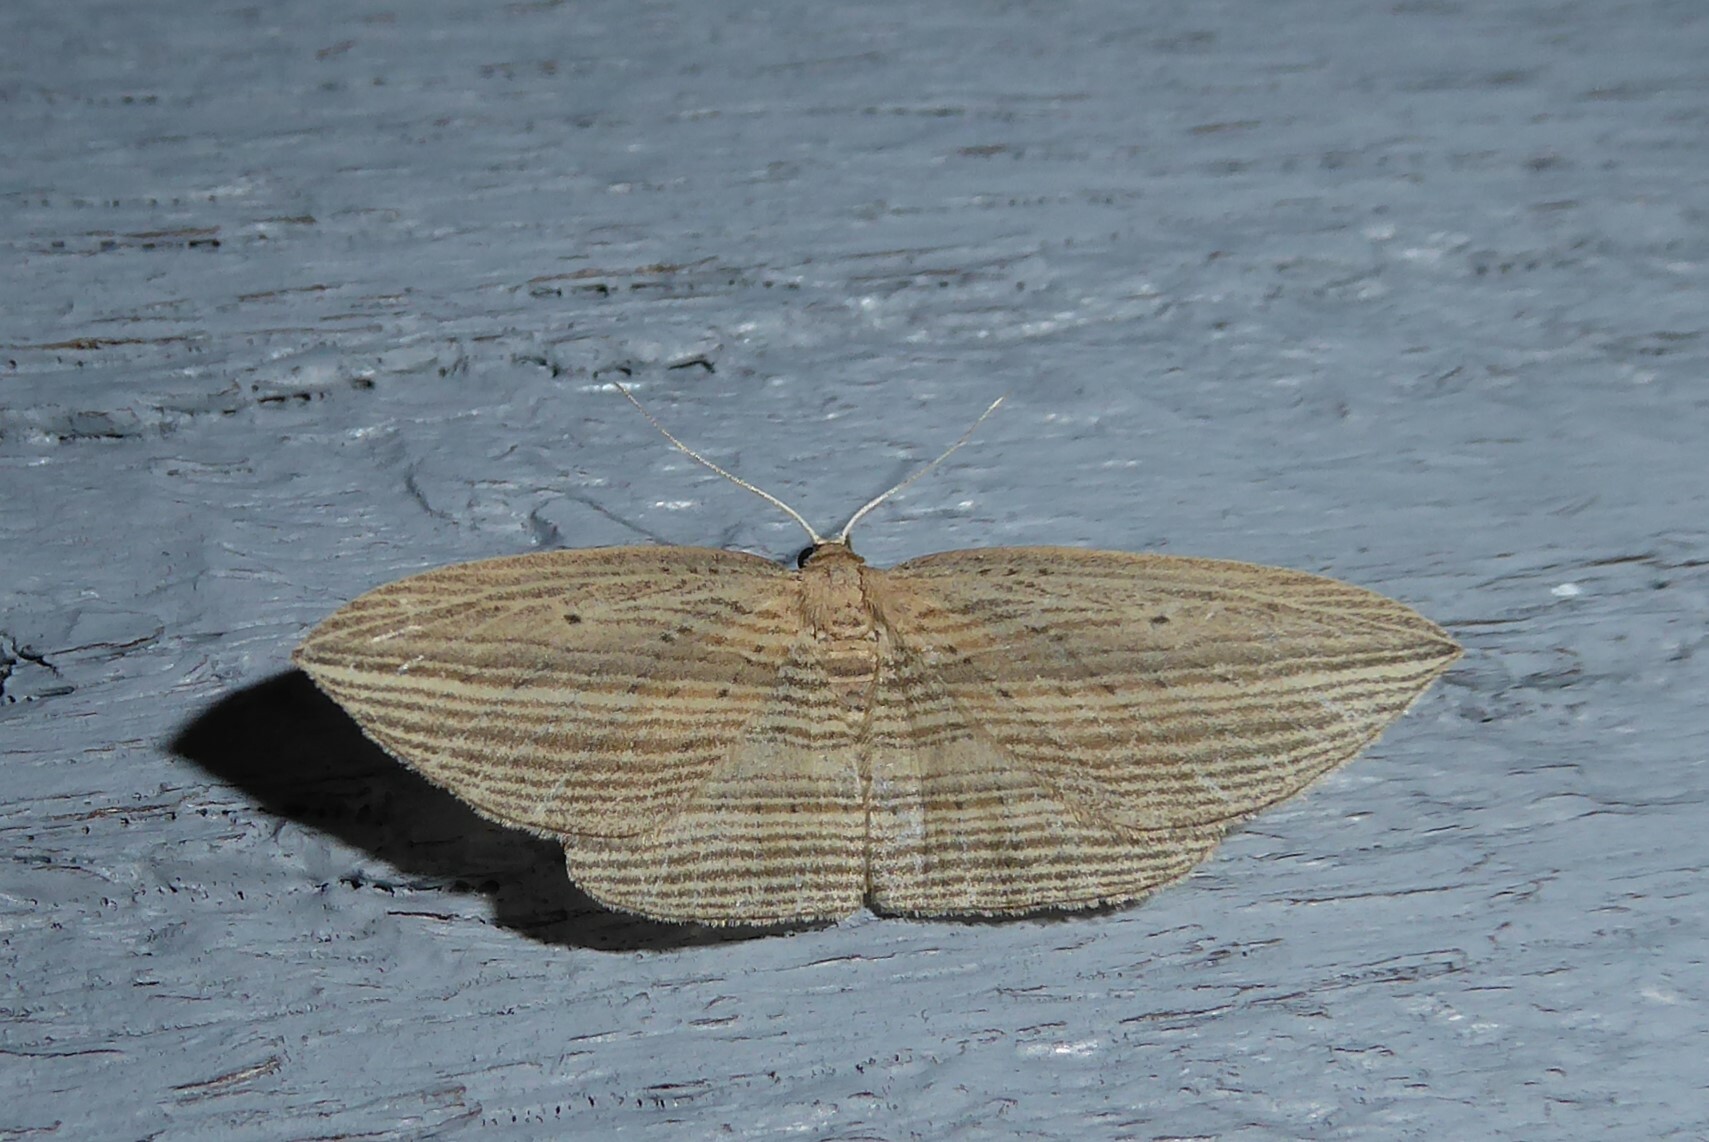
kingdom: Animalia
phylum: Arthropoda
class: Insecta
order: Lepidoptera
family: Geometridae
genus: Epiphryne
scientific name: Epiphryne verriculata
